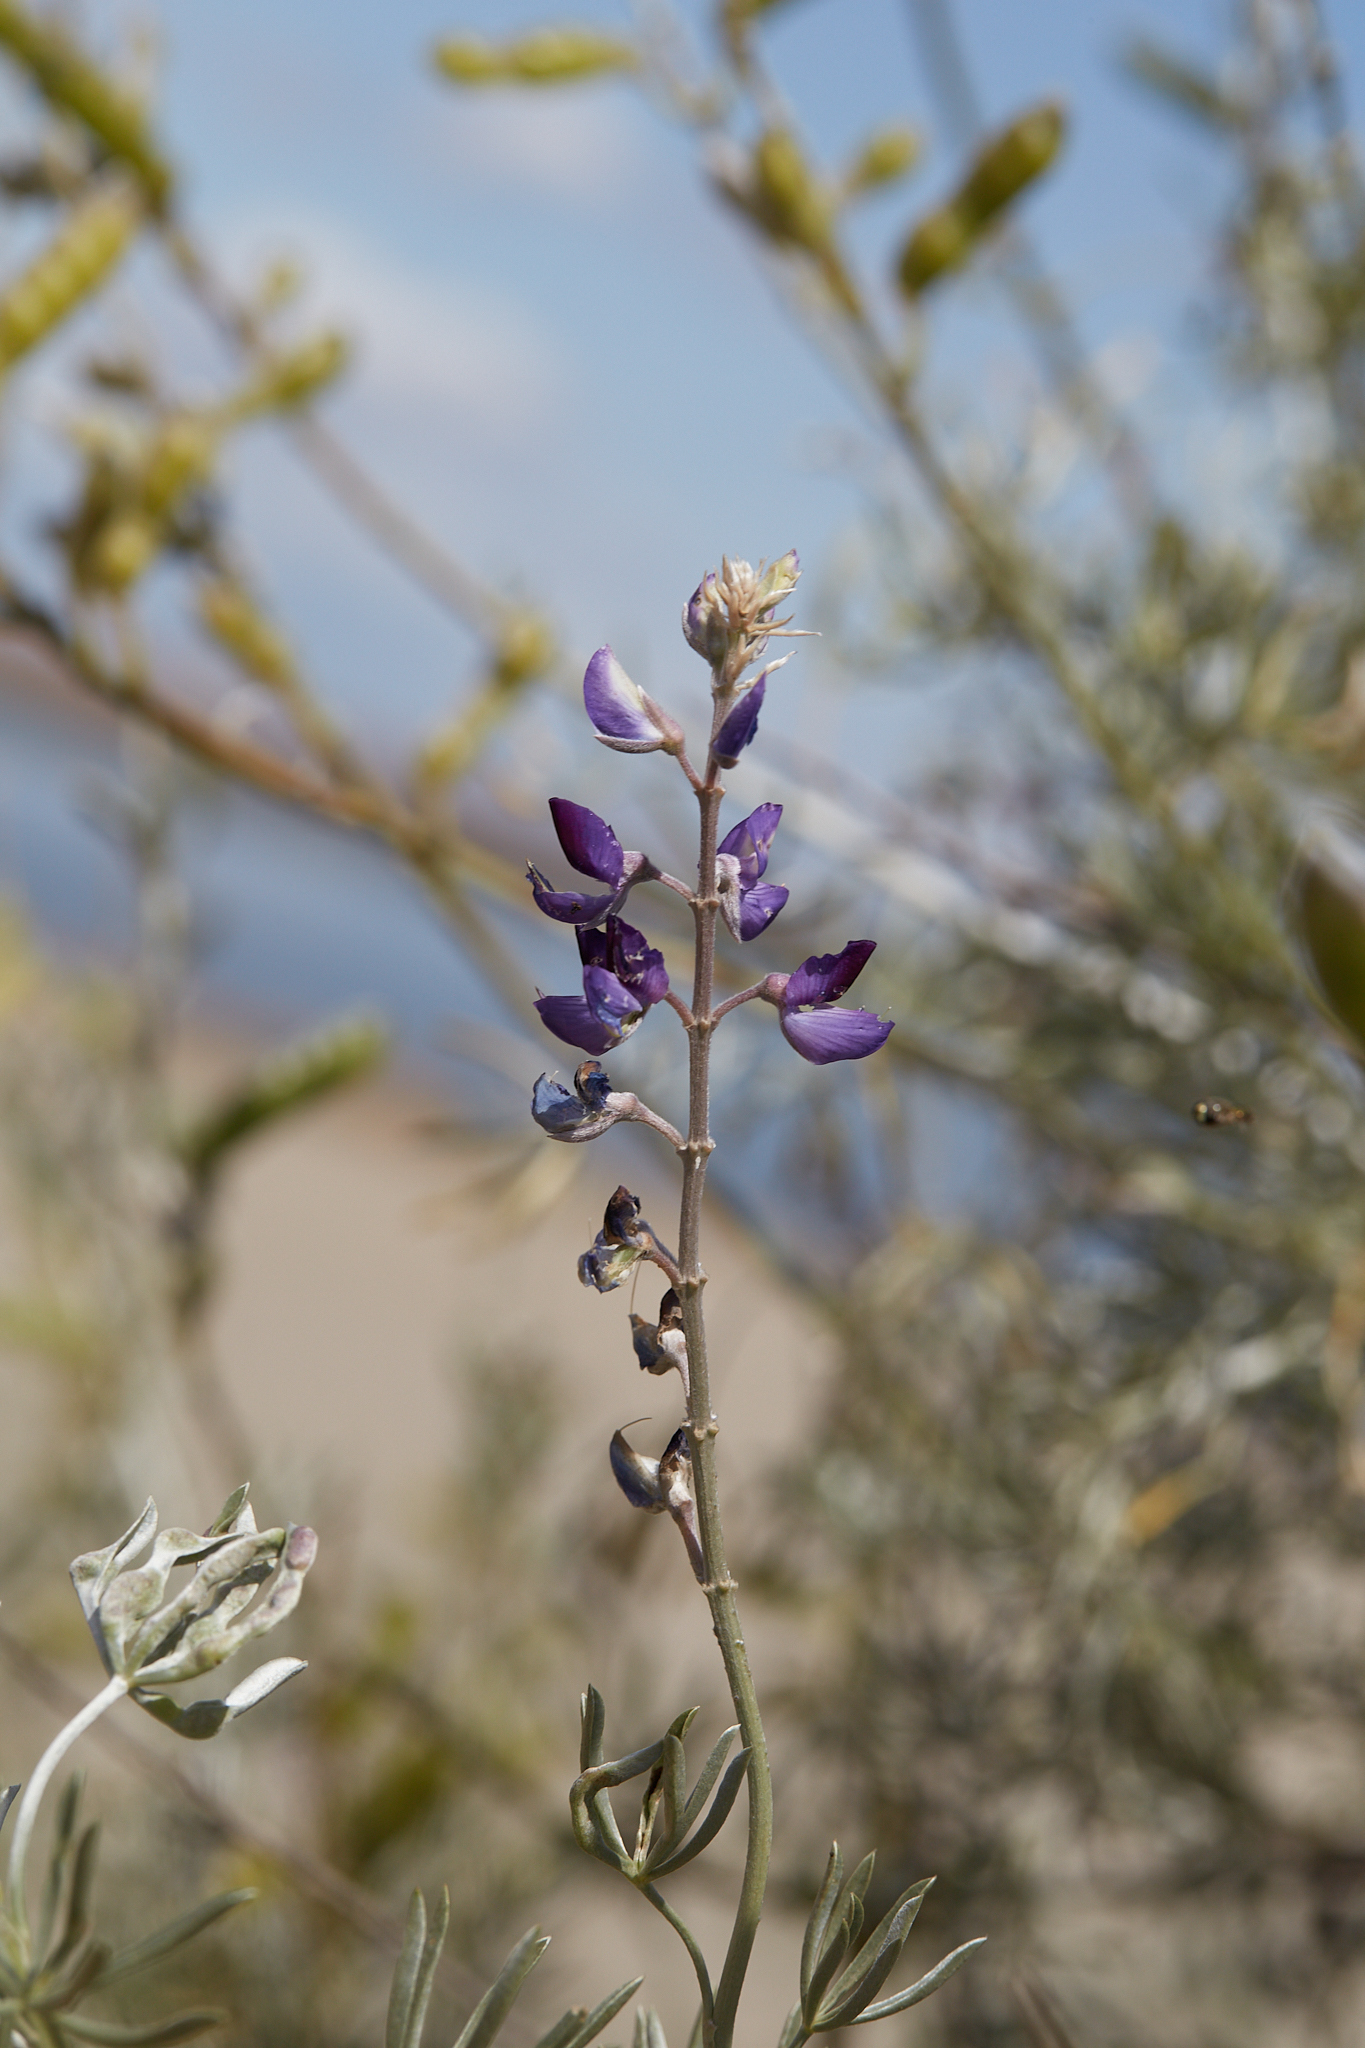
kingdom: Plantae
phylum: Tracheophyta
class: Magnoliopsida
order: Fabales
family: Fabaceae
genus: Lupinus
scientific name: Lupinus albifrons
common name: Foothill lupine
